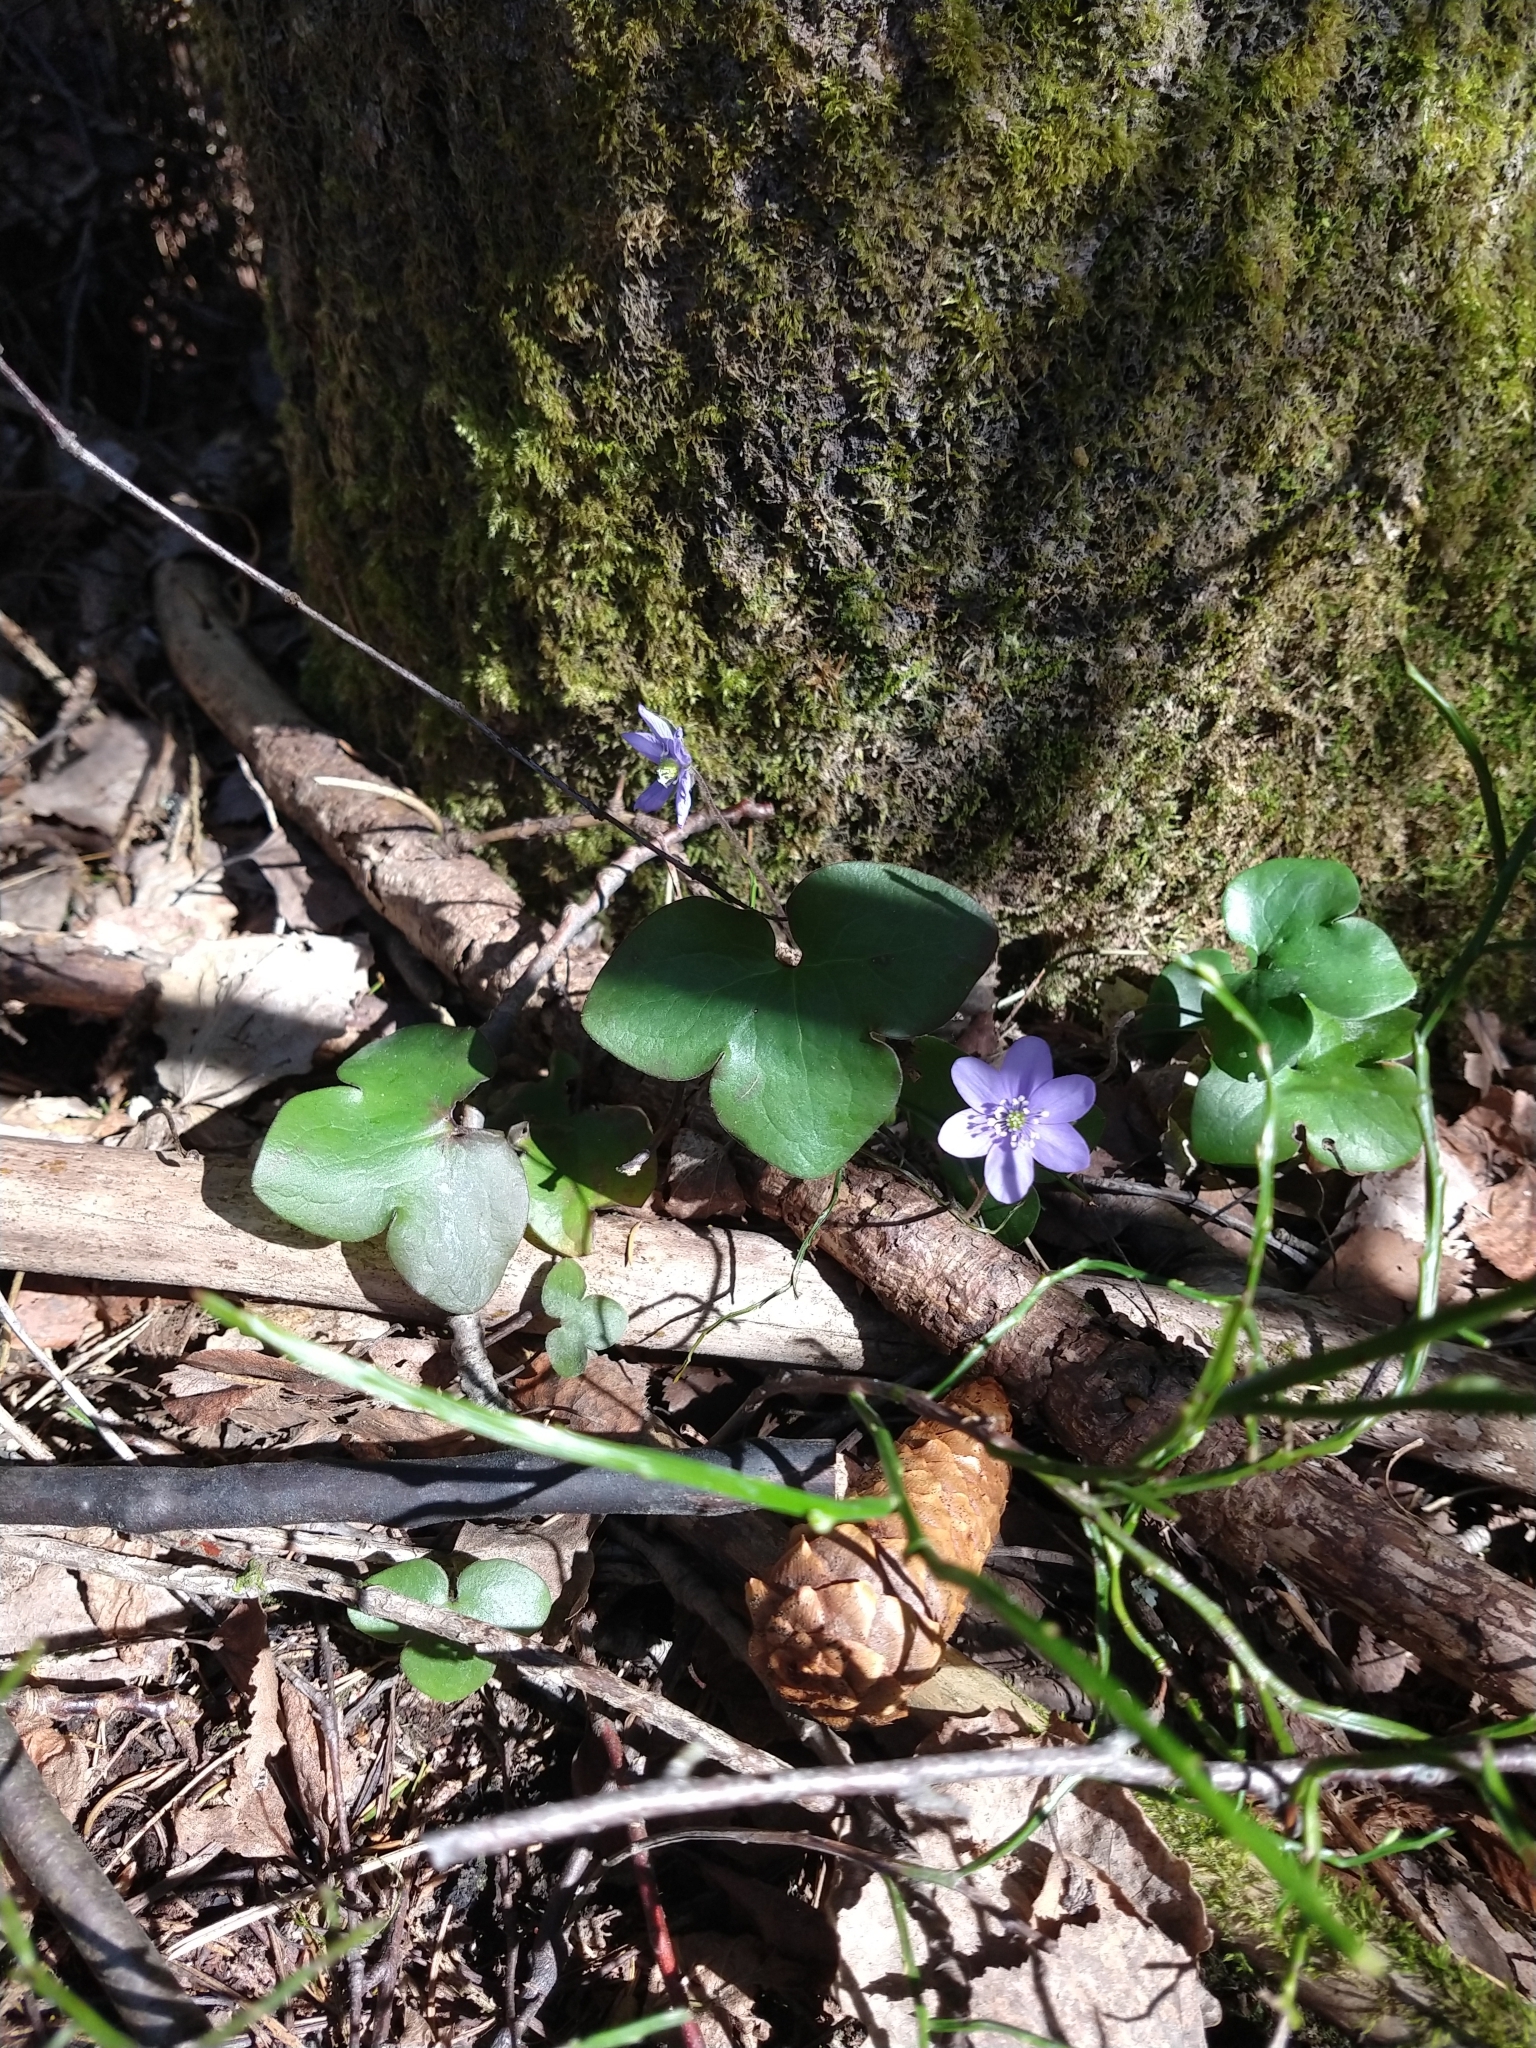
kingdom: Plantae
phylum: Tracheophyta
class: Magnoliopsida
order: Ranunculales
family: Ranunculaceae
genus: Hepatica
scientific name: Hepatica nobilis
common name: Liverleaf
